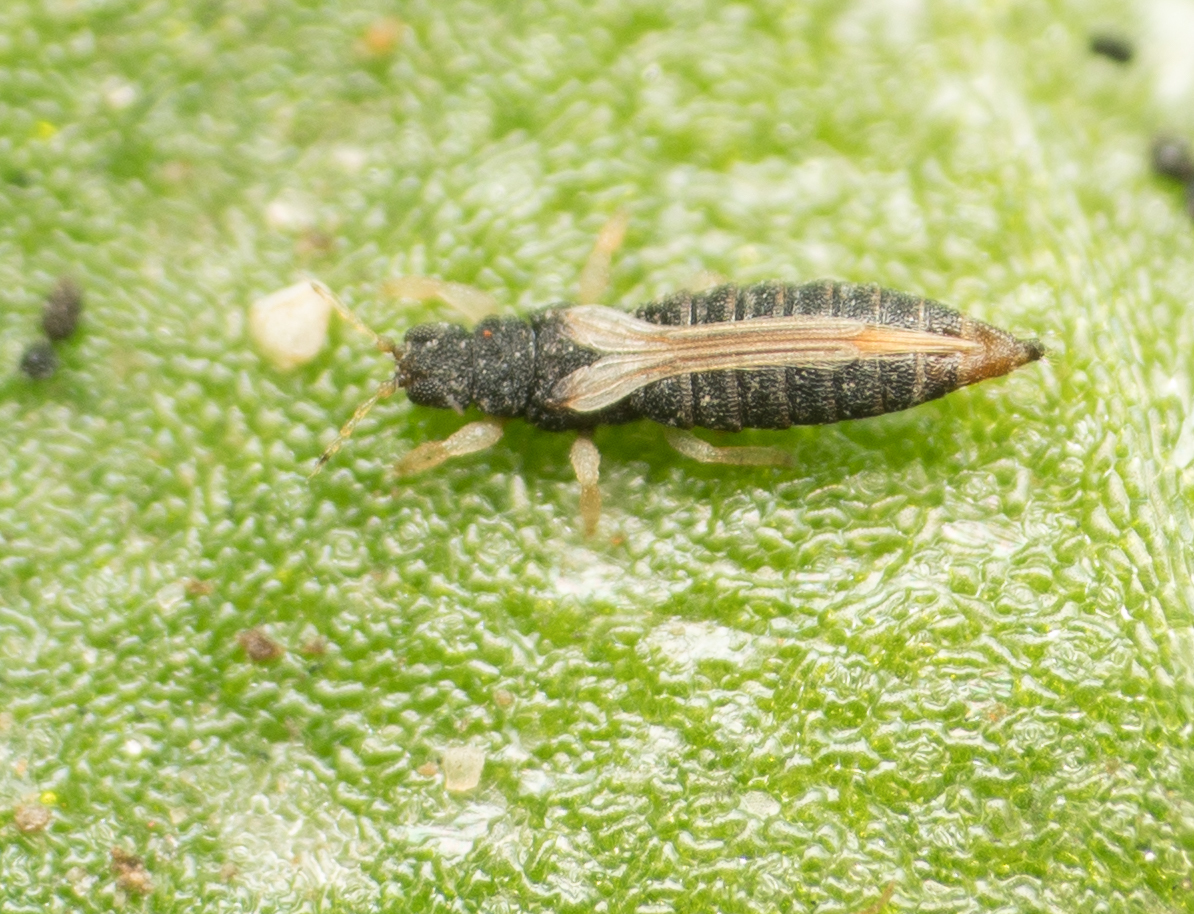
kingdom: Animalia
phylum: Arthropoda
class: Insecta
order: Thysanoptera
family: Thripidae
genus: Heliothrips
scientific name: Heliothrips haemorrhoidalis
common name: Thrips
